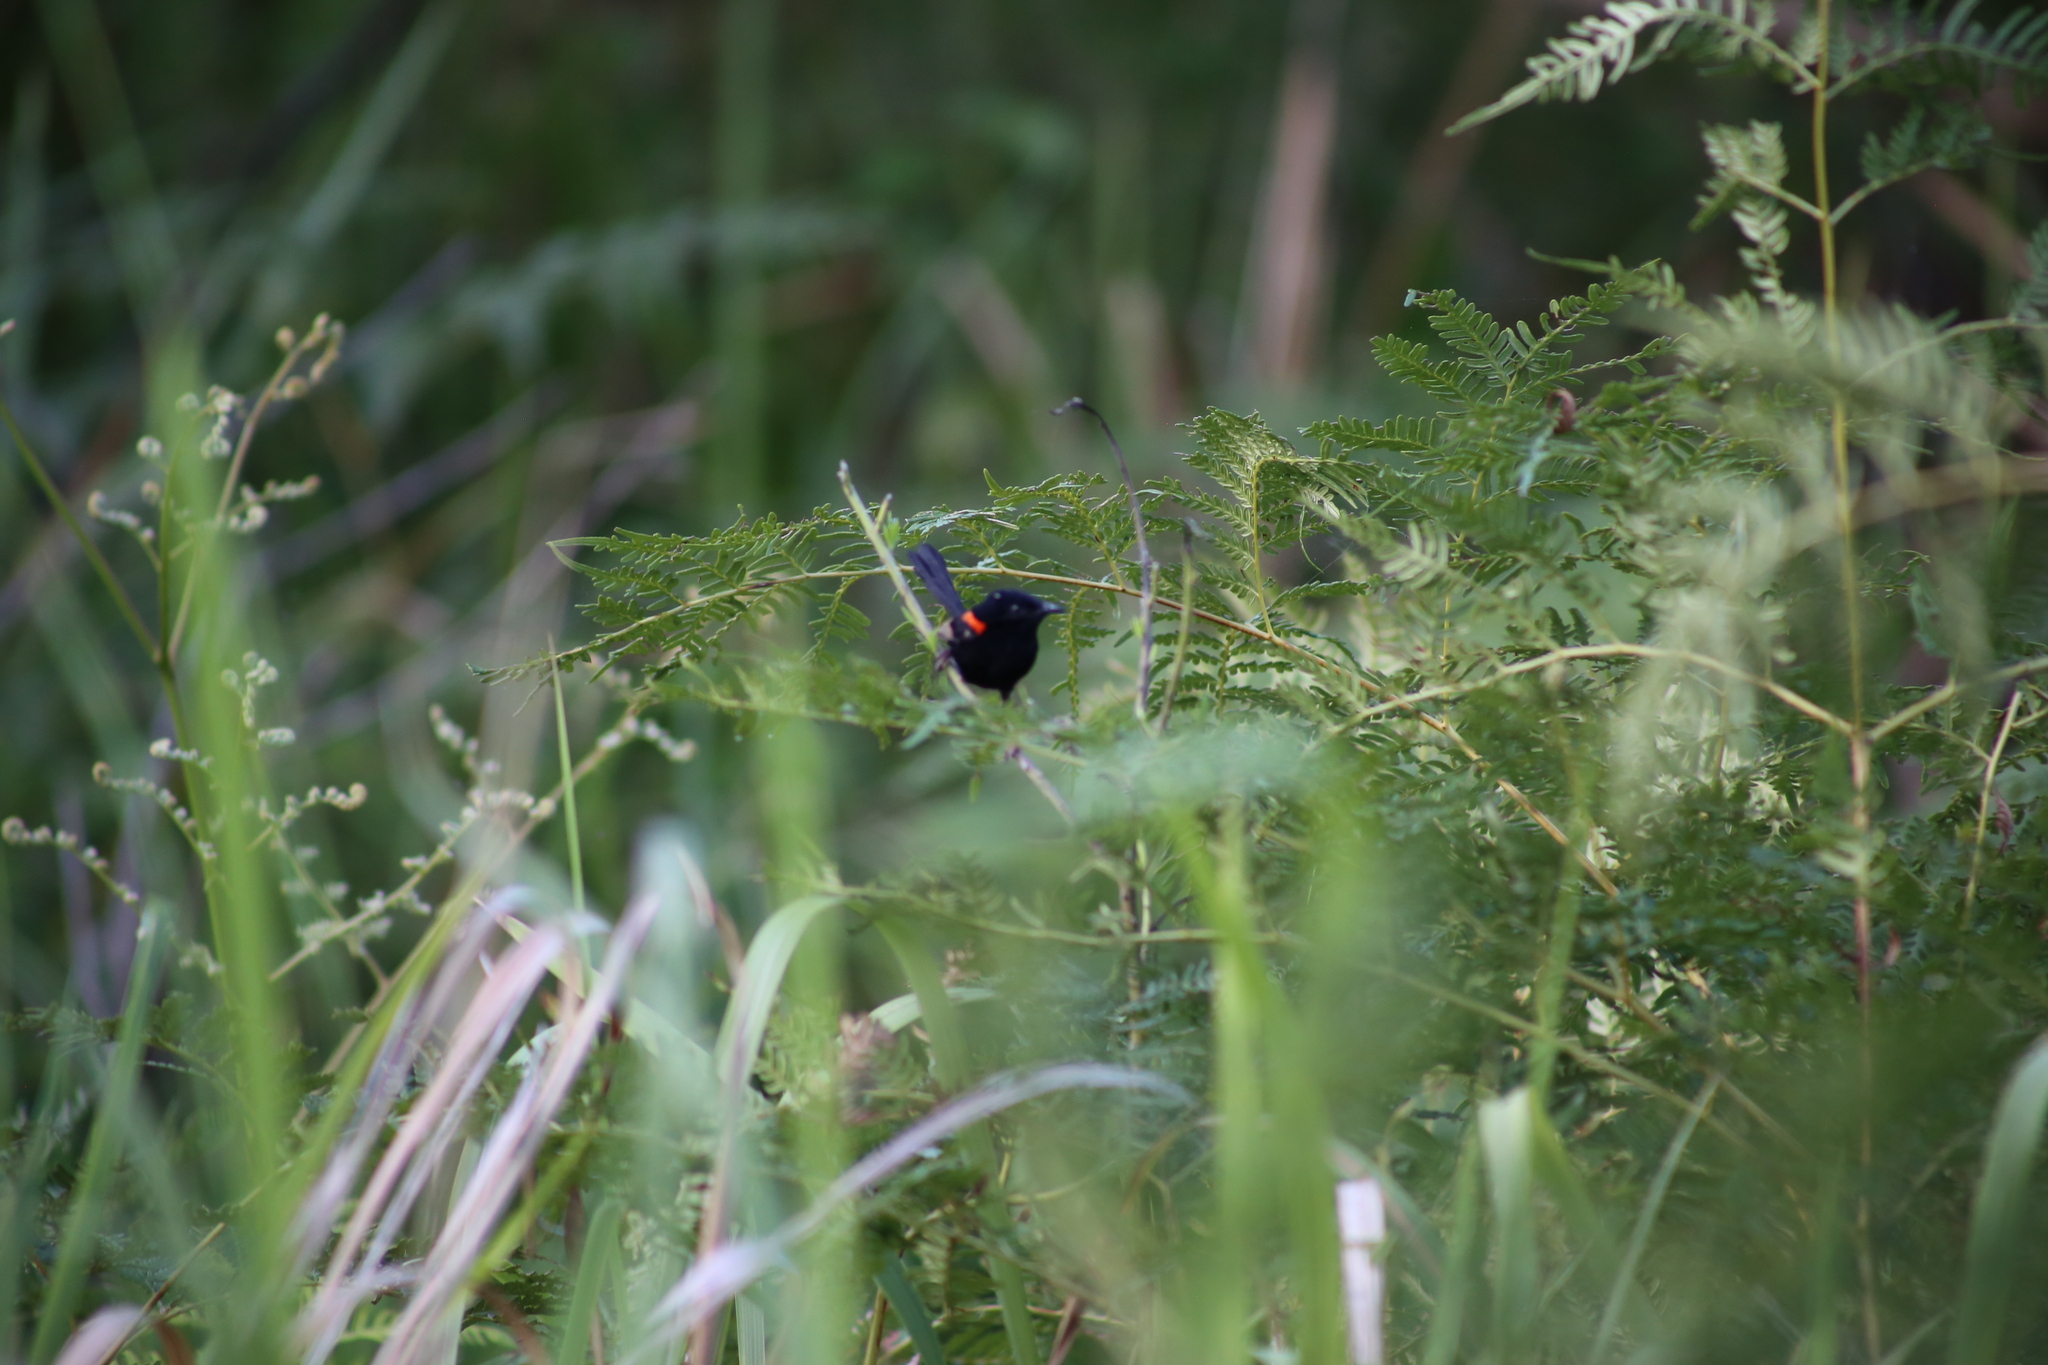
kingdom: Animalia
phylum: Chordata
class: Aves
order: Passeriformes
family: Maluridae
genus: Malurus
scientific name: Malurus melanocephalus
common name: Red-backed fairywren
